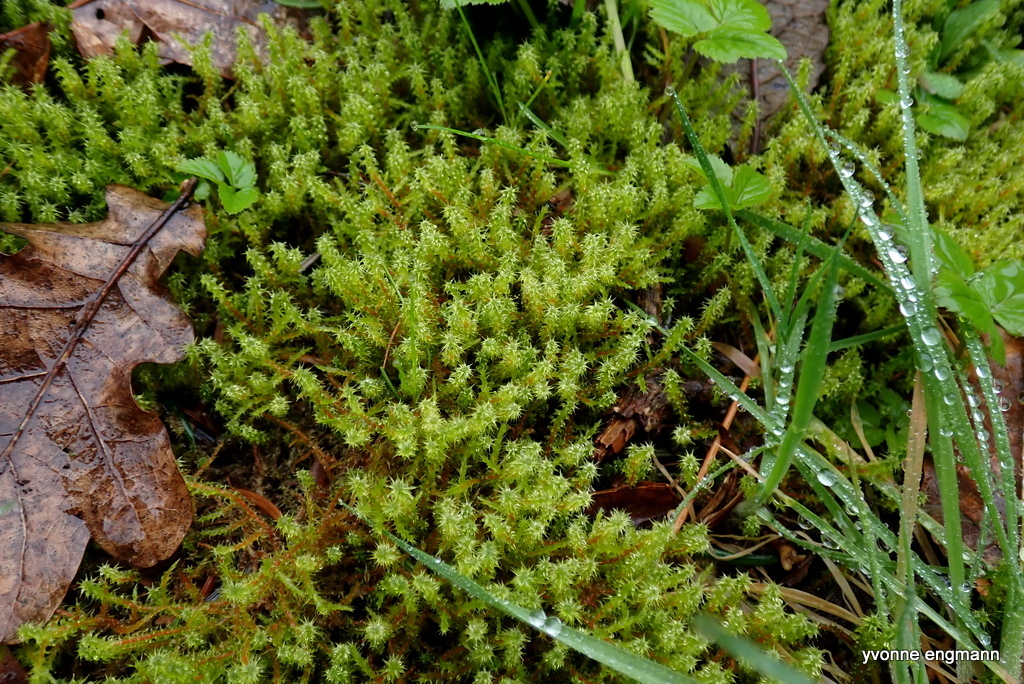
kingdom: Plantae
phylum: Bryophyta
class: Bryopsida
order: Hypnales
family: Hylocomiaceae
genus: Rhytidiadelphus
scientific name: Rhytidiadelphus squarrosus
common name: Springy turf-moss
